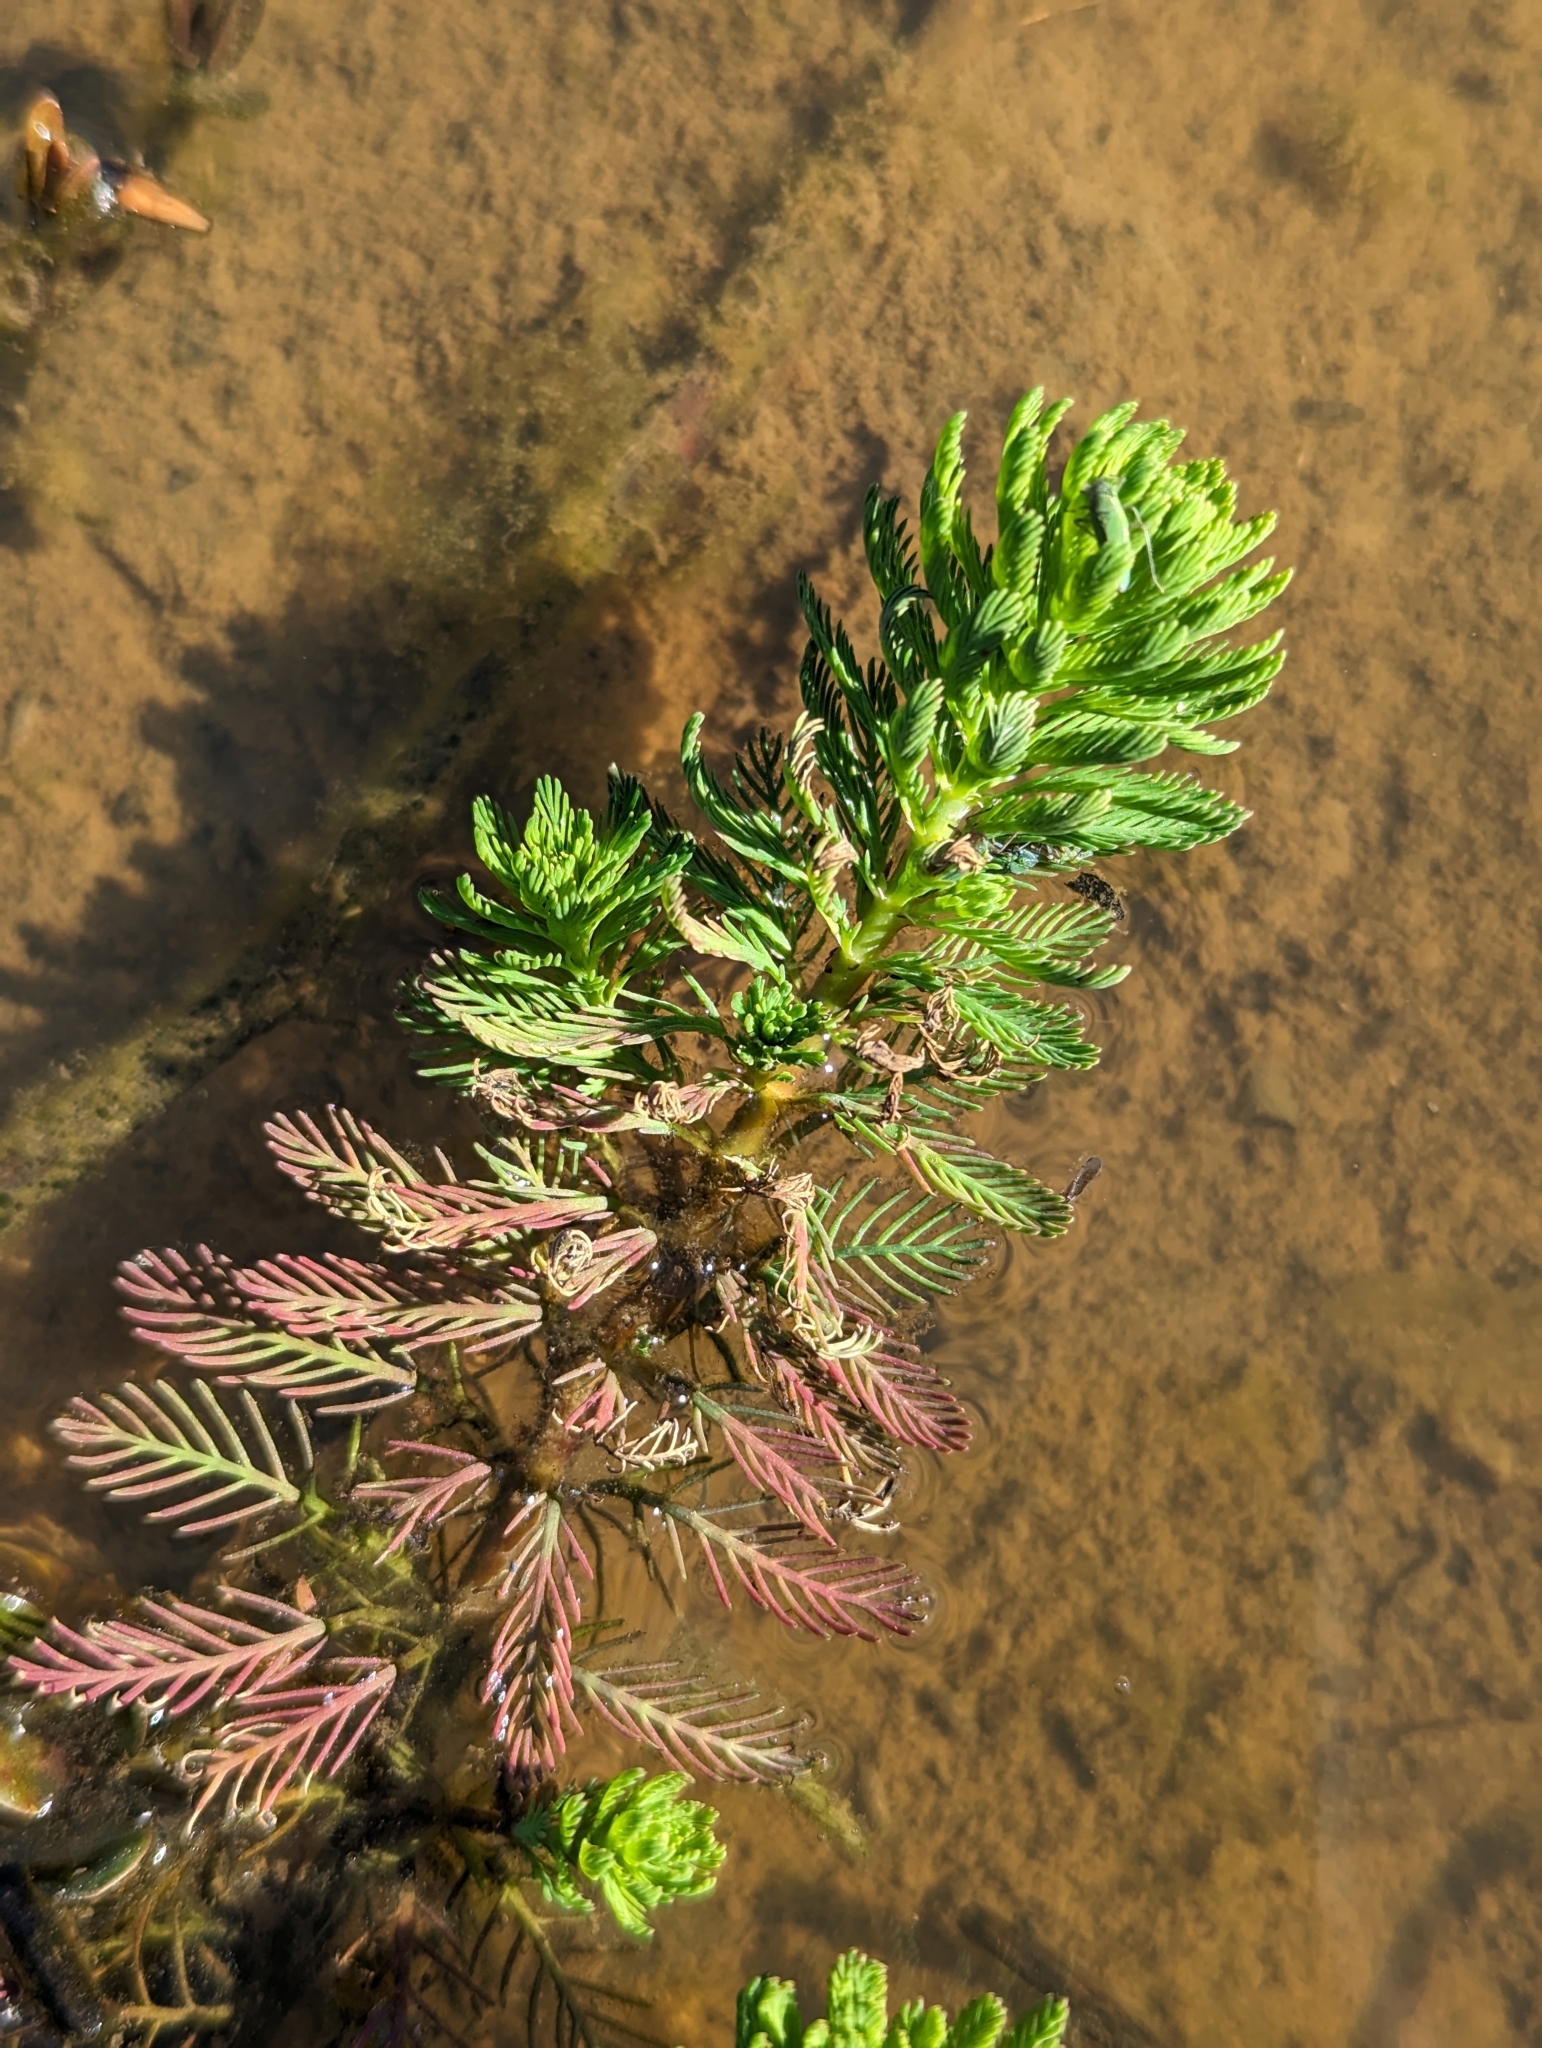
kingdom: Plantae
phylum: Tracheophyta
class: Magnoliopsida
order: Saxifragales
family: Haloragaceae
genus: Myriophyllum
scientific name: Myriophyllum aquaticum
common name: Parrot's feather
